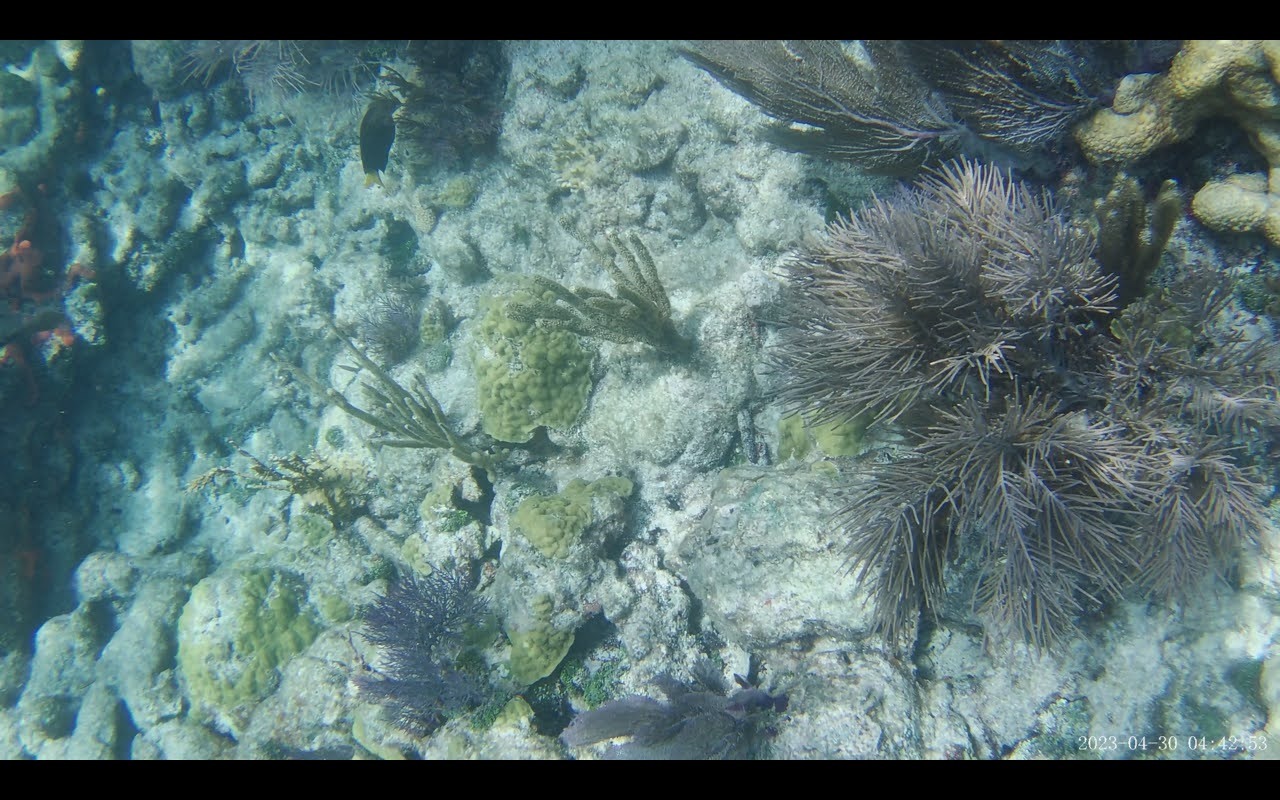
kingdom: Animalia
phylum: Chordata
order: Perciformes
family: Pomacentridae
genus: Microspathodon
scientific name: Microspathodon chrysurus
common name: Yellowtail damselfish
